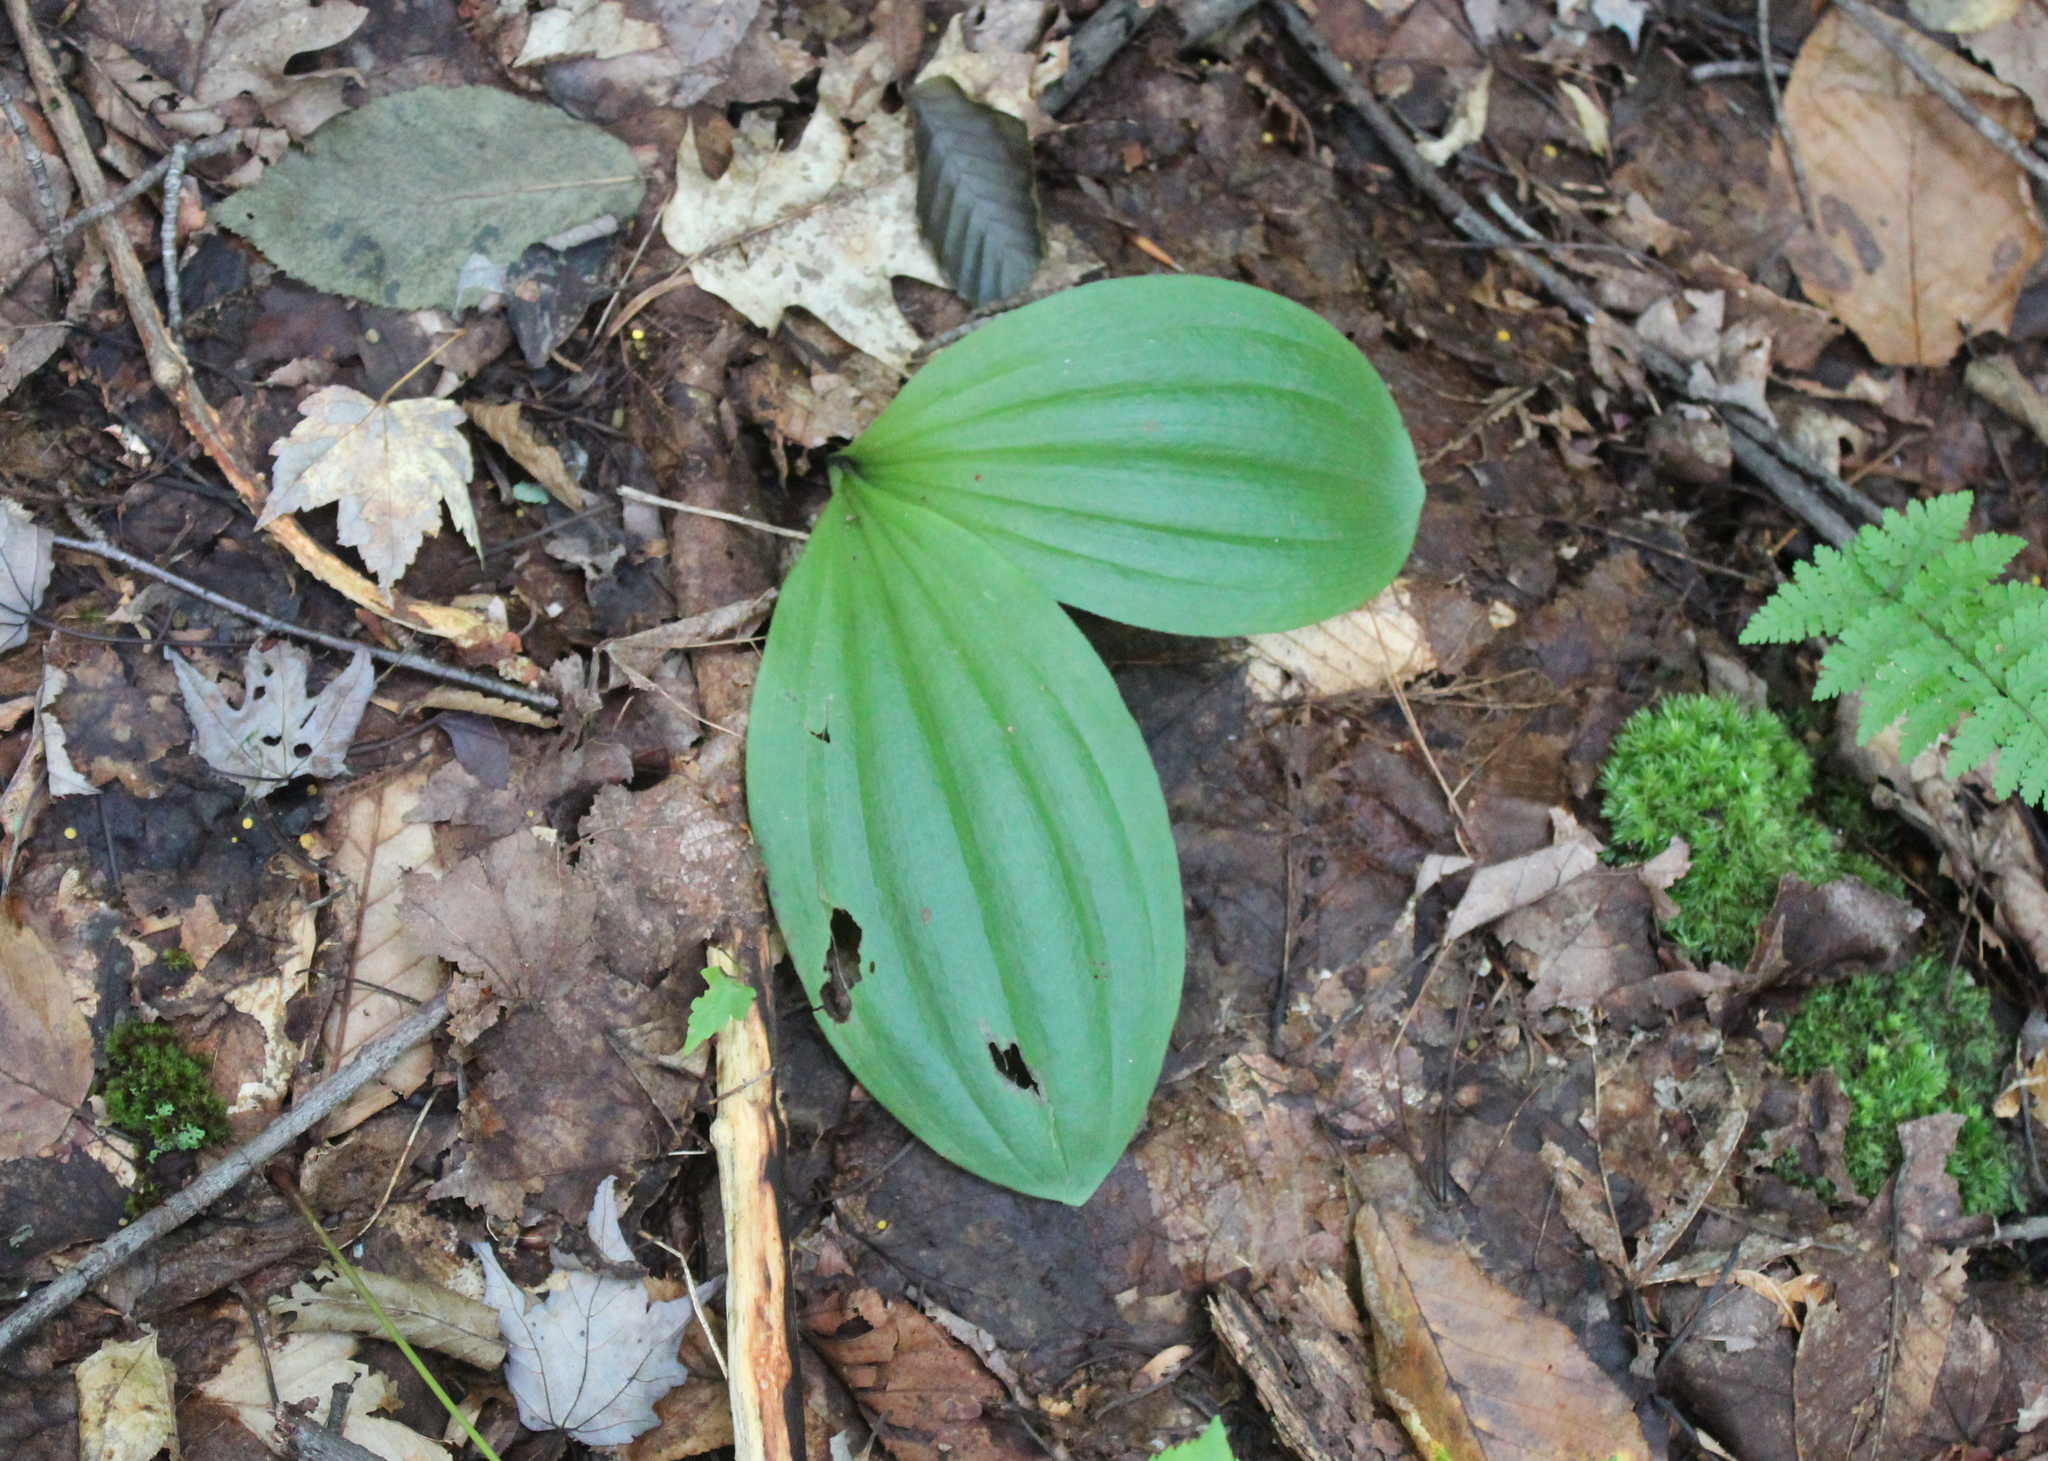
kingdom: Plantae
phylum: Tracheophyta
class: Liliopsida
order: Asparagales
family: Orchidaceae
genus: Cypripedium
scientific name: Cypripedium acaule
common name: Pink lady's-slipper
